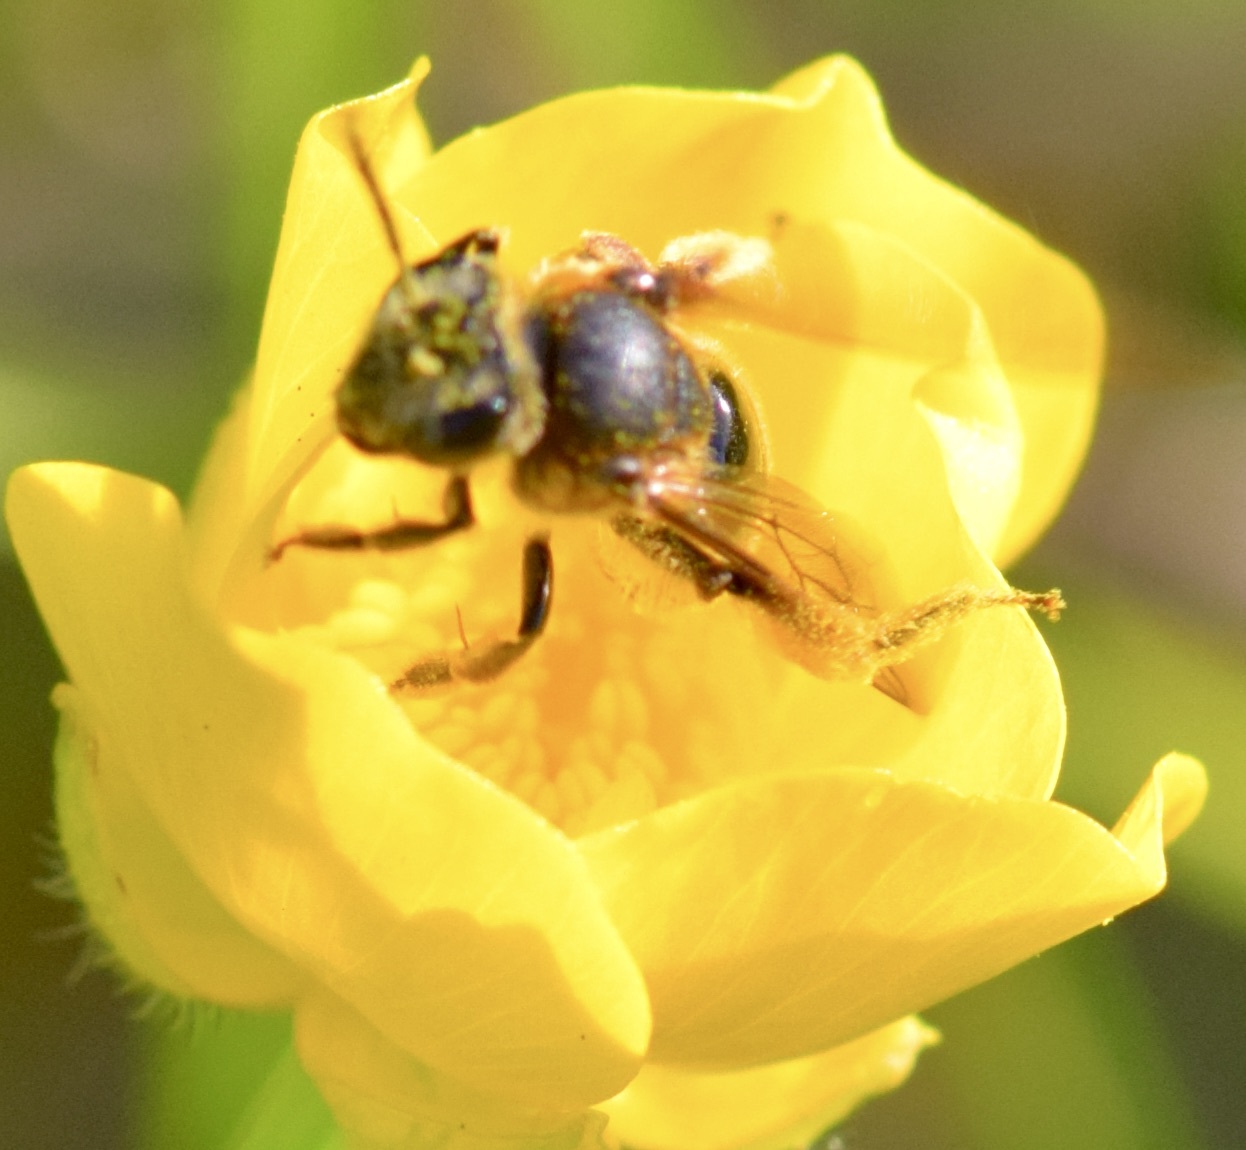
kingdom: Animalia
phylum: Arthropoda
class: Insecta
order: Hymenoptera
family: Andrenidae
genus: Andrena
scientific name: Andrena alleghaniensis
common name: Allegheny mining bee
